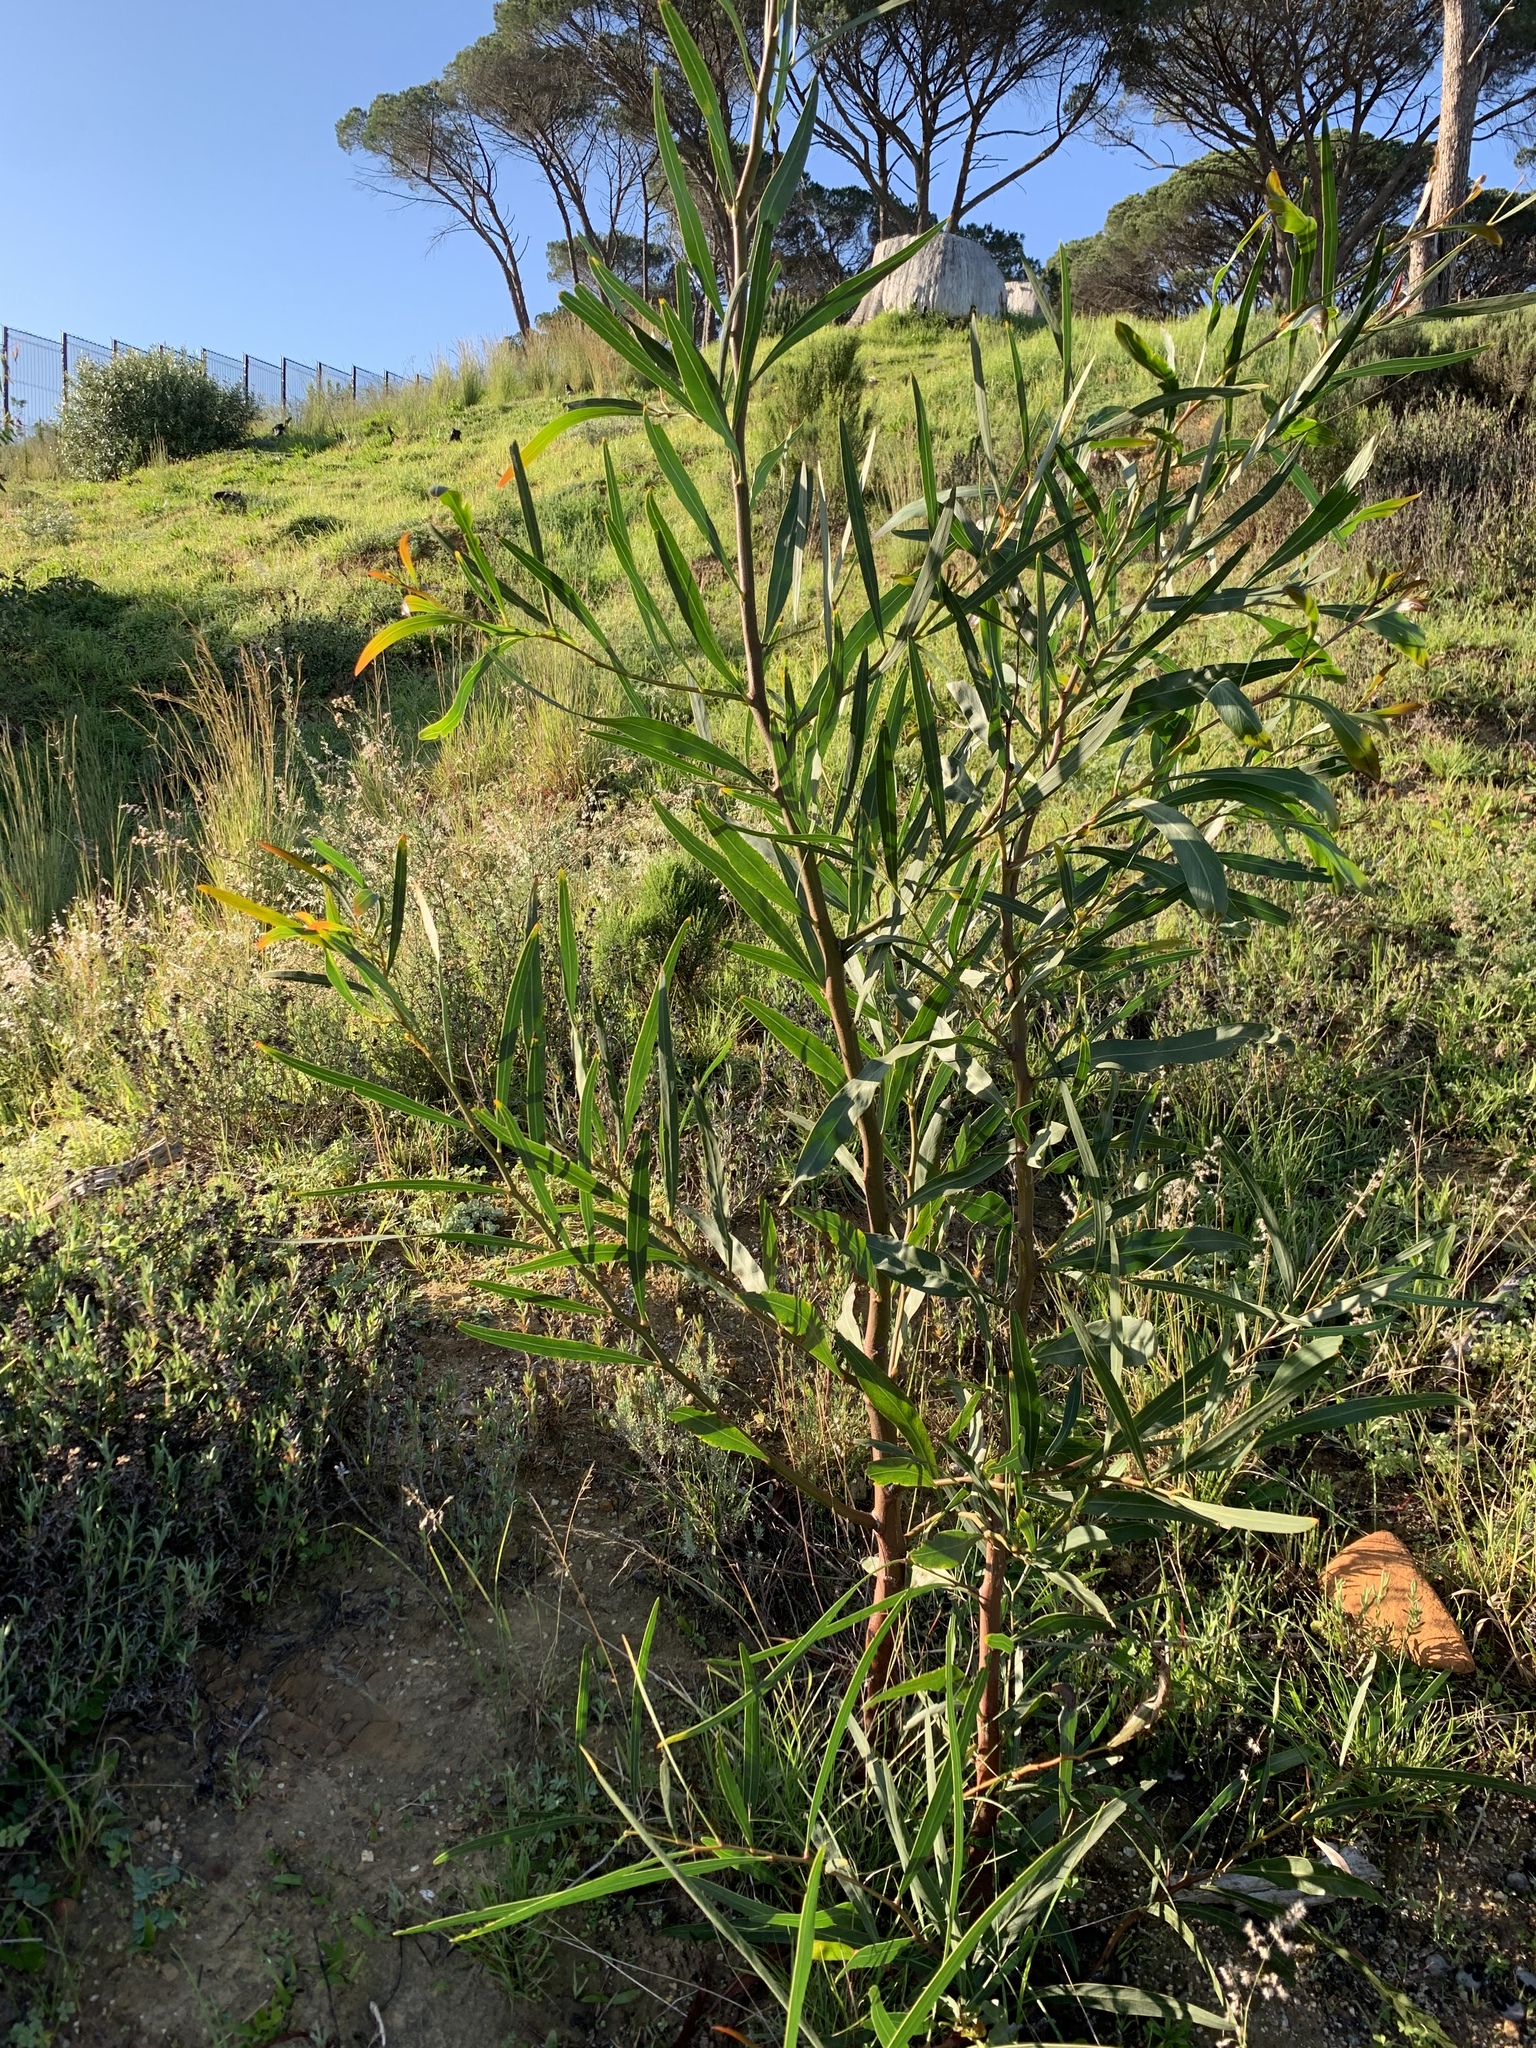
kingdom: Plantae
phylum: Tracheophyta
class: Magnoliopsida
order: Fabales
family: Fabaceae
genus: Acacia
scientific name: Acacia saligna
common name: Orange wattle
